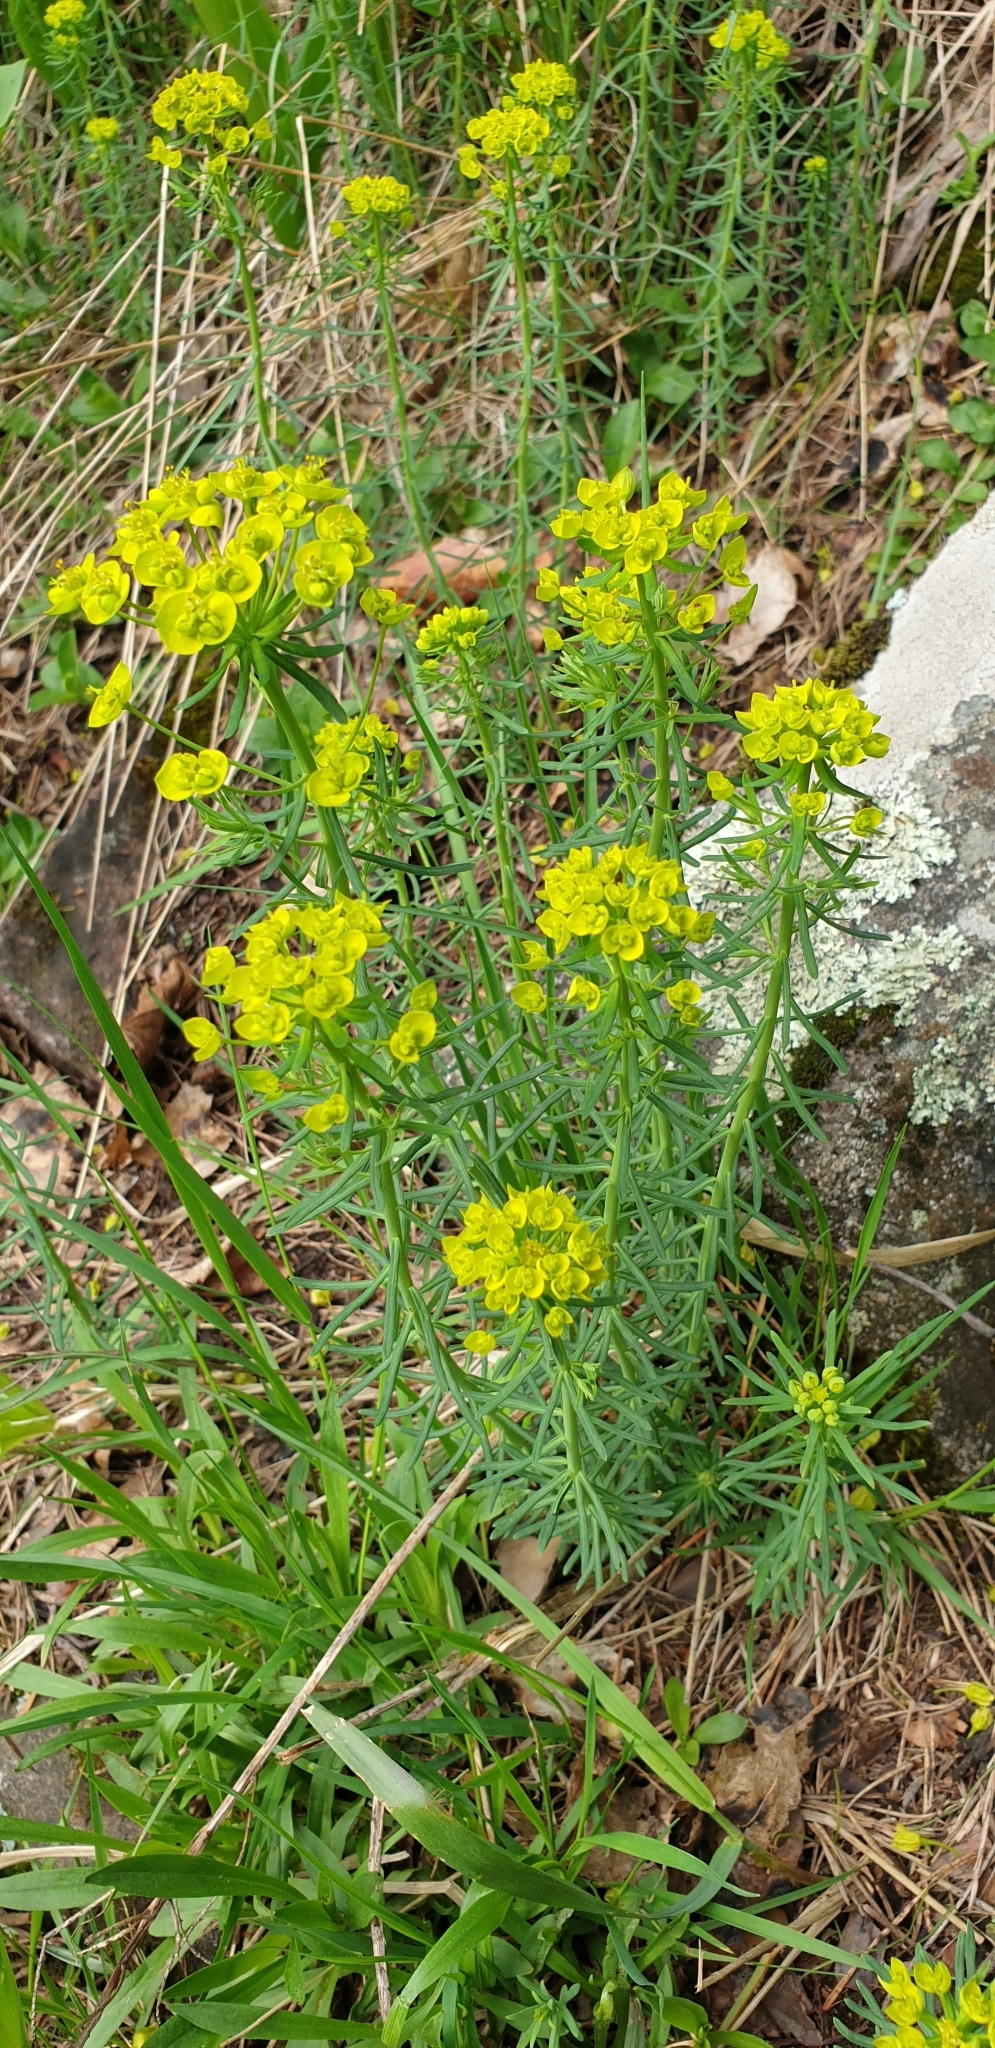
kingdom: Plantae
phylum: Tracheophyta
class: Magnoliopsida
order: Malpighiales
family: Euphorbiaceae
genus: Euphorbia
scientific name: Euphorbia cyparissias
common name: Cypress spurge
